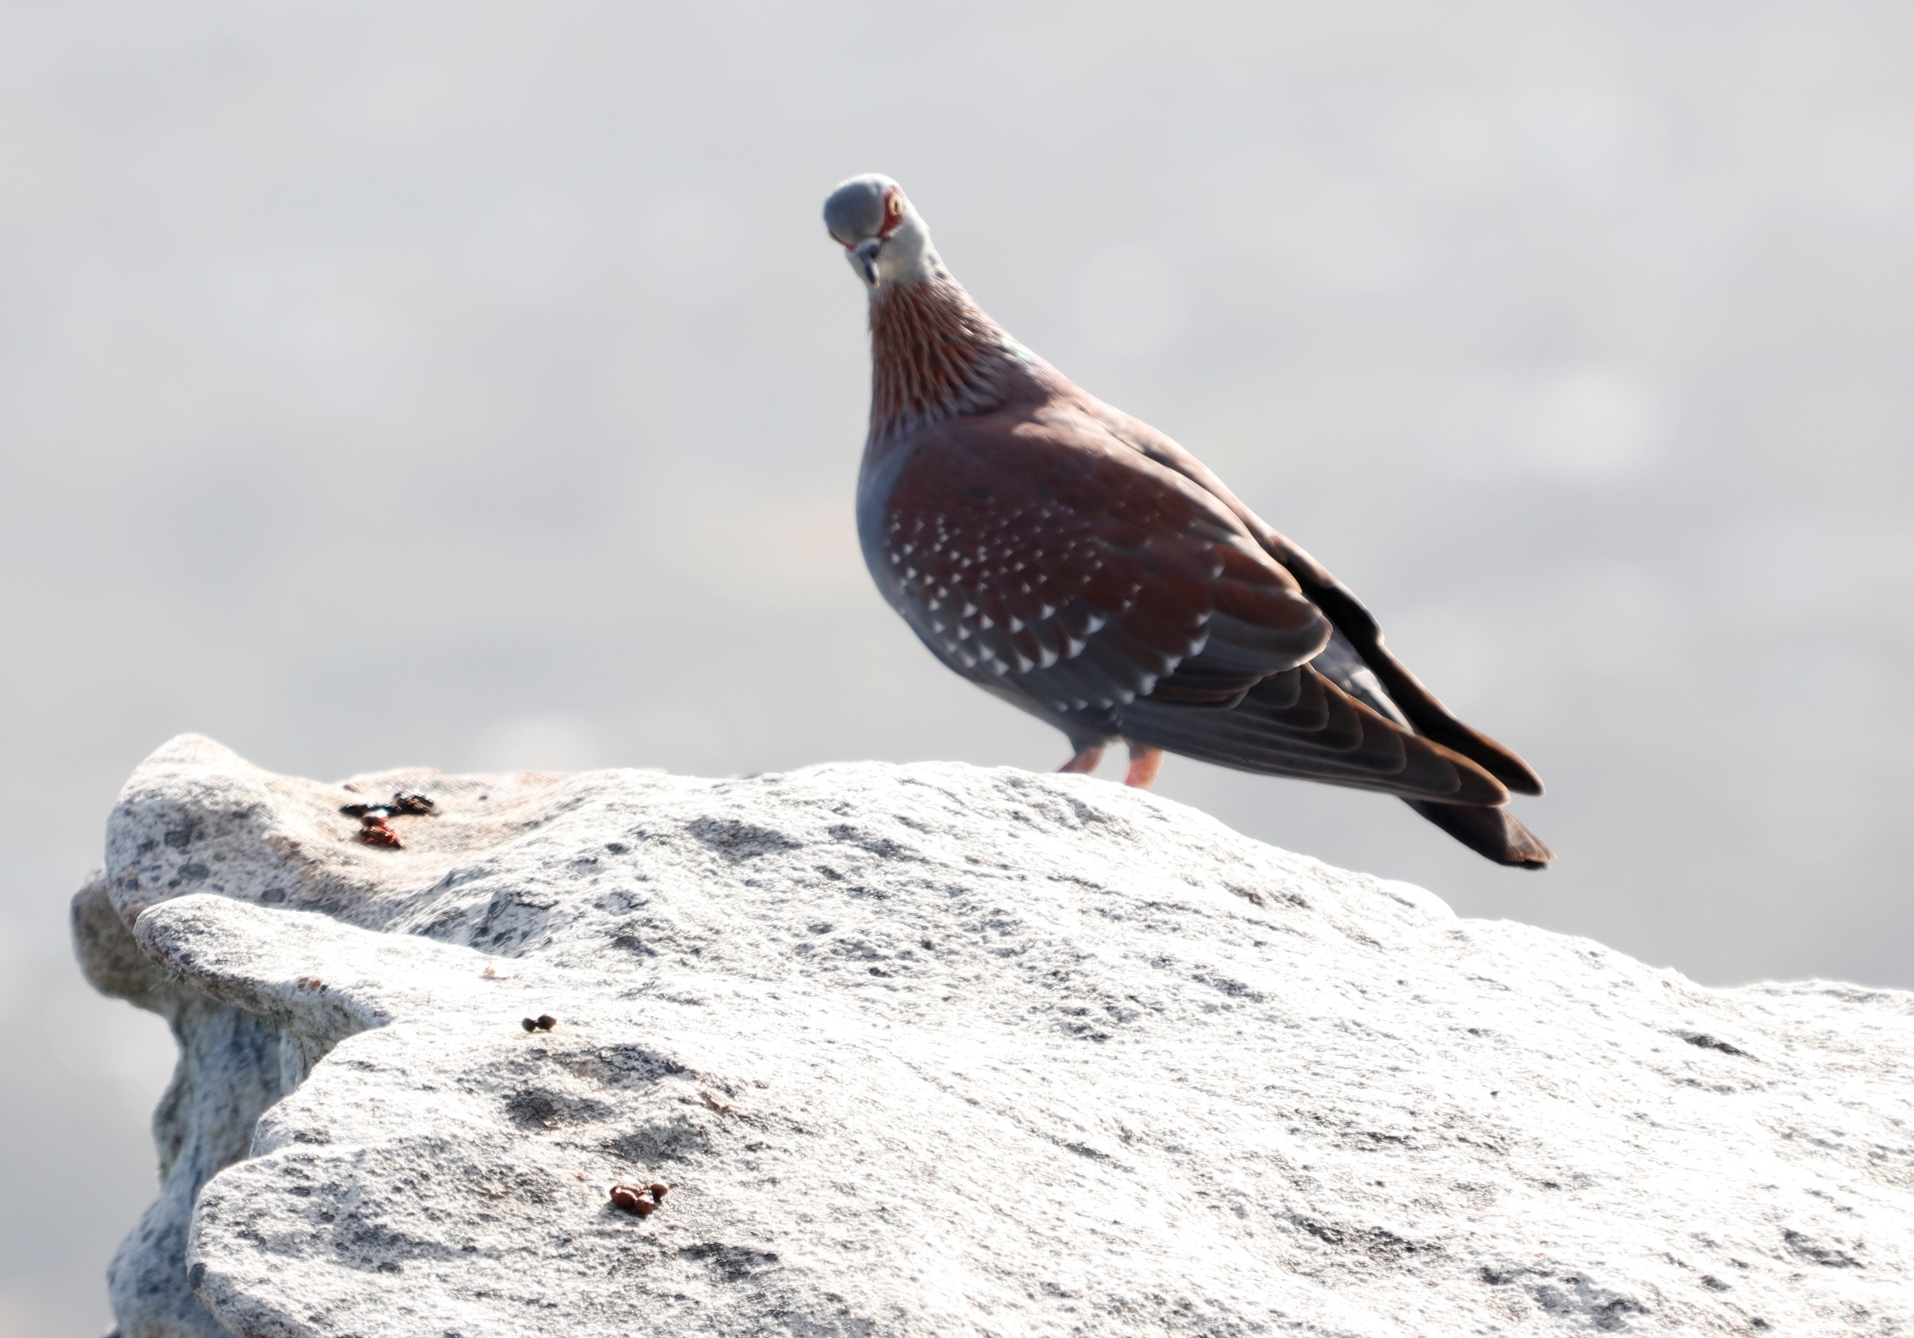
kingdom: Animalia
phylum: Chordata
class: Aves
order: Columbiformes
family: Columbidae
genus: Columba
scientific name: Columba guinea
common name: Speckled pigeon
